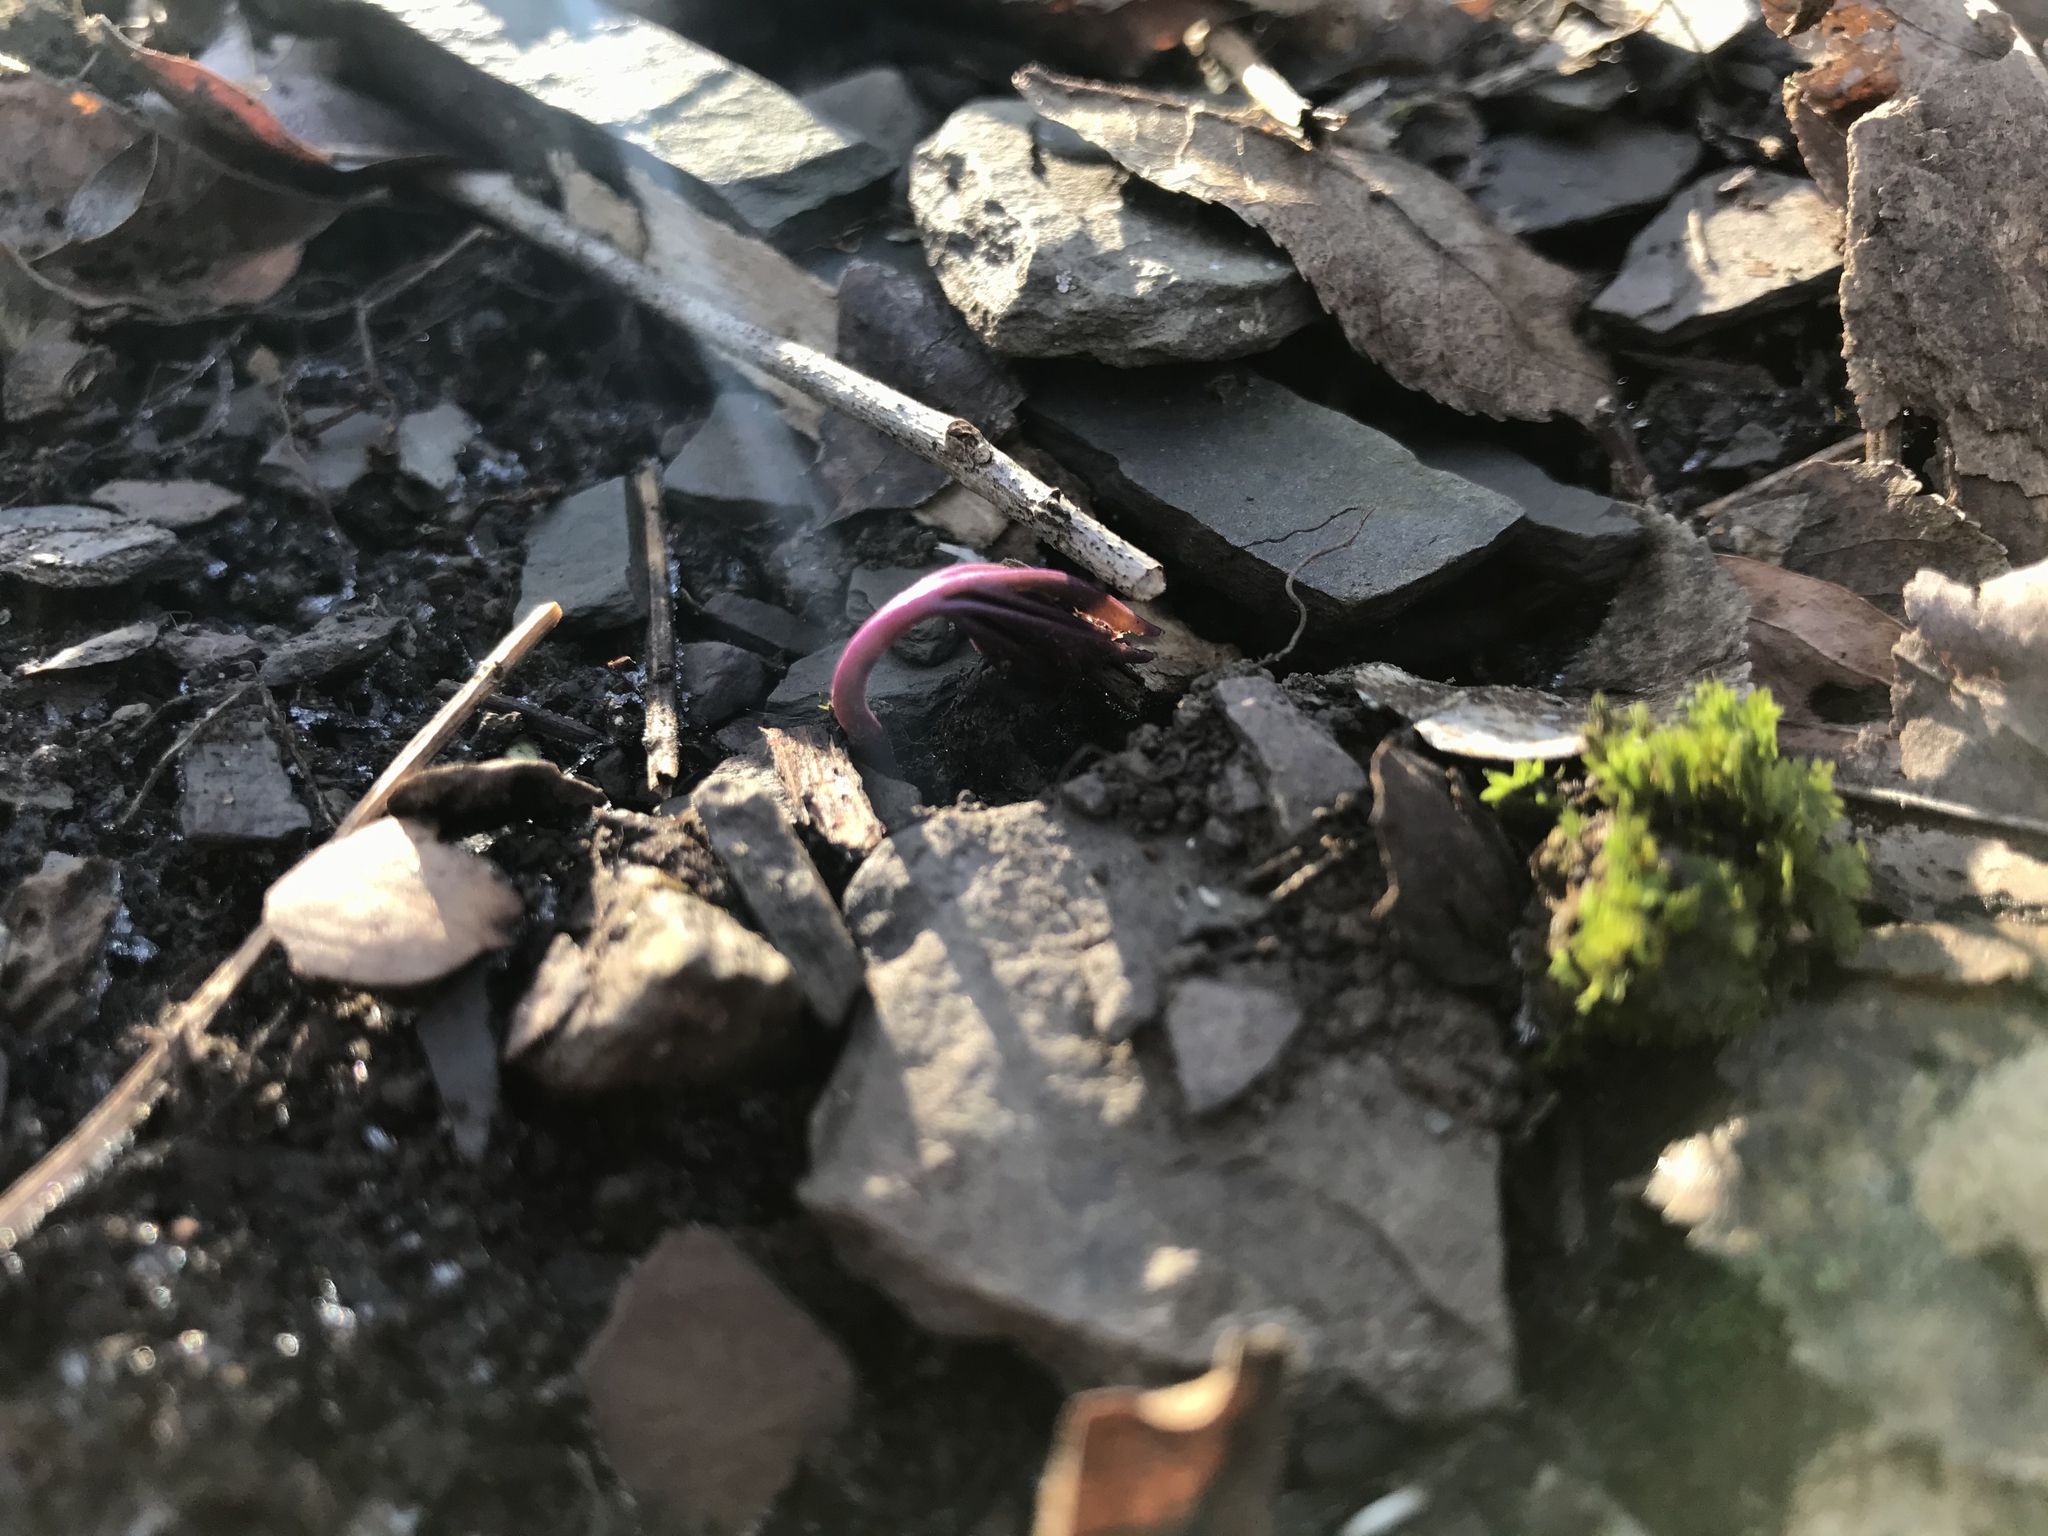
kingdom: Plantae
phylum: Tracheophyta
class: Magnoliopsida
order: Brassicales
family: Brassicaceae
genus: Cardamine
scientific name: Cardamine concatenata
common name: Cut-leaf toothcup
